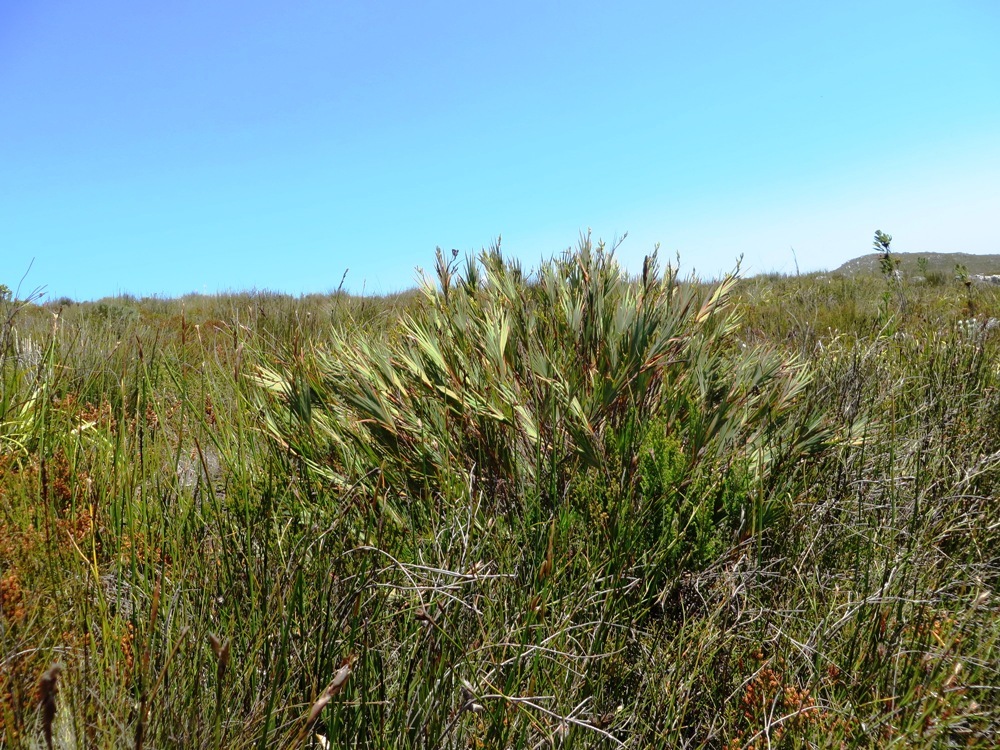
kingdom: Plantae
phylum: Tracheophyta
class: Liliopsida
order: Asparagales
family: Iridaceae
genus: Nivenia
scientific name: Nivenia stokoei
